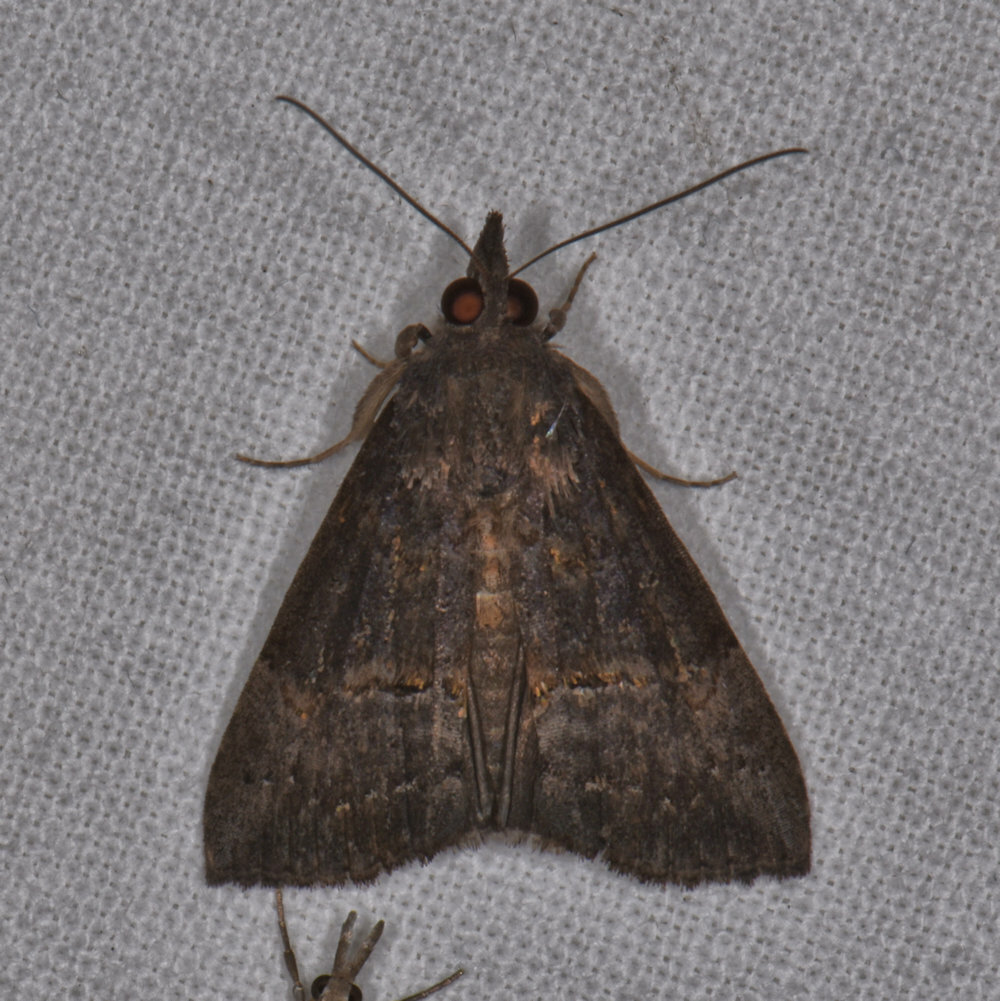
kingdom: Animalia
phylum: Arthropoda
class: Insecta
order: Lepidoptera
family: Erebidae
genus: Hypena
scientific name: Hypena scabra
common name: Green cloverworm
